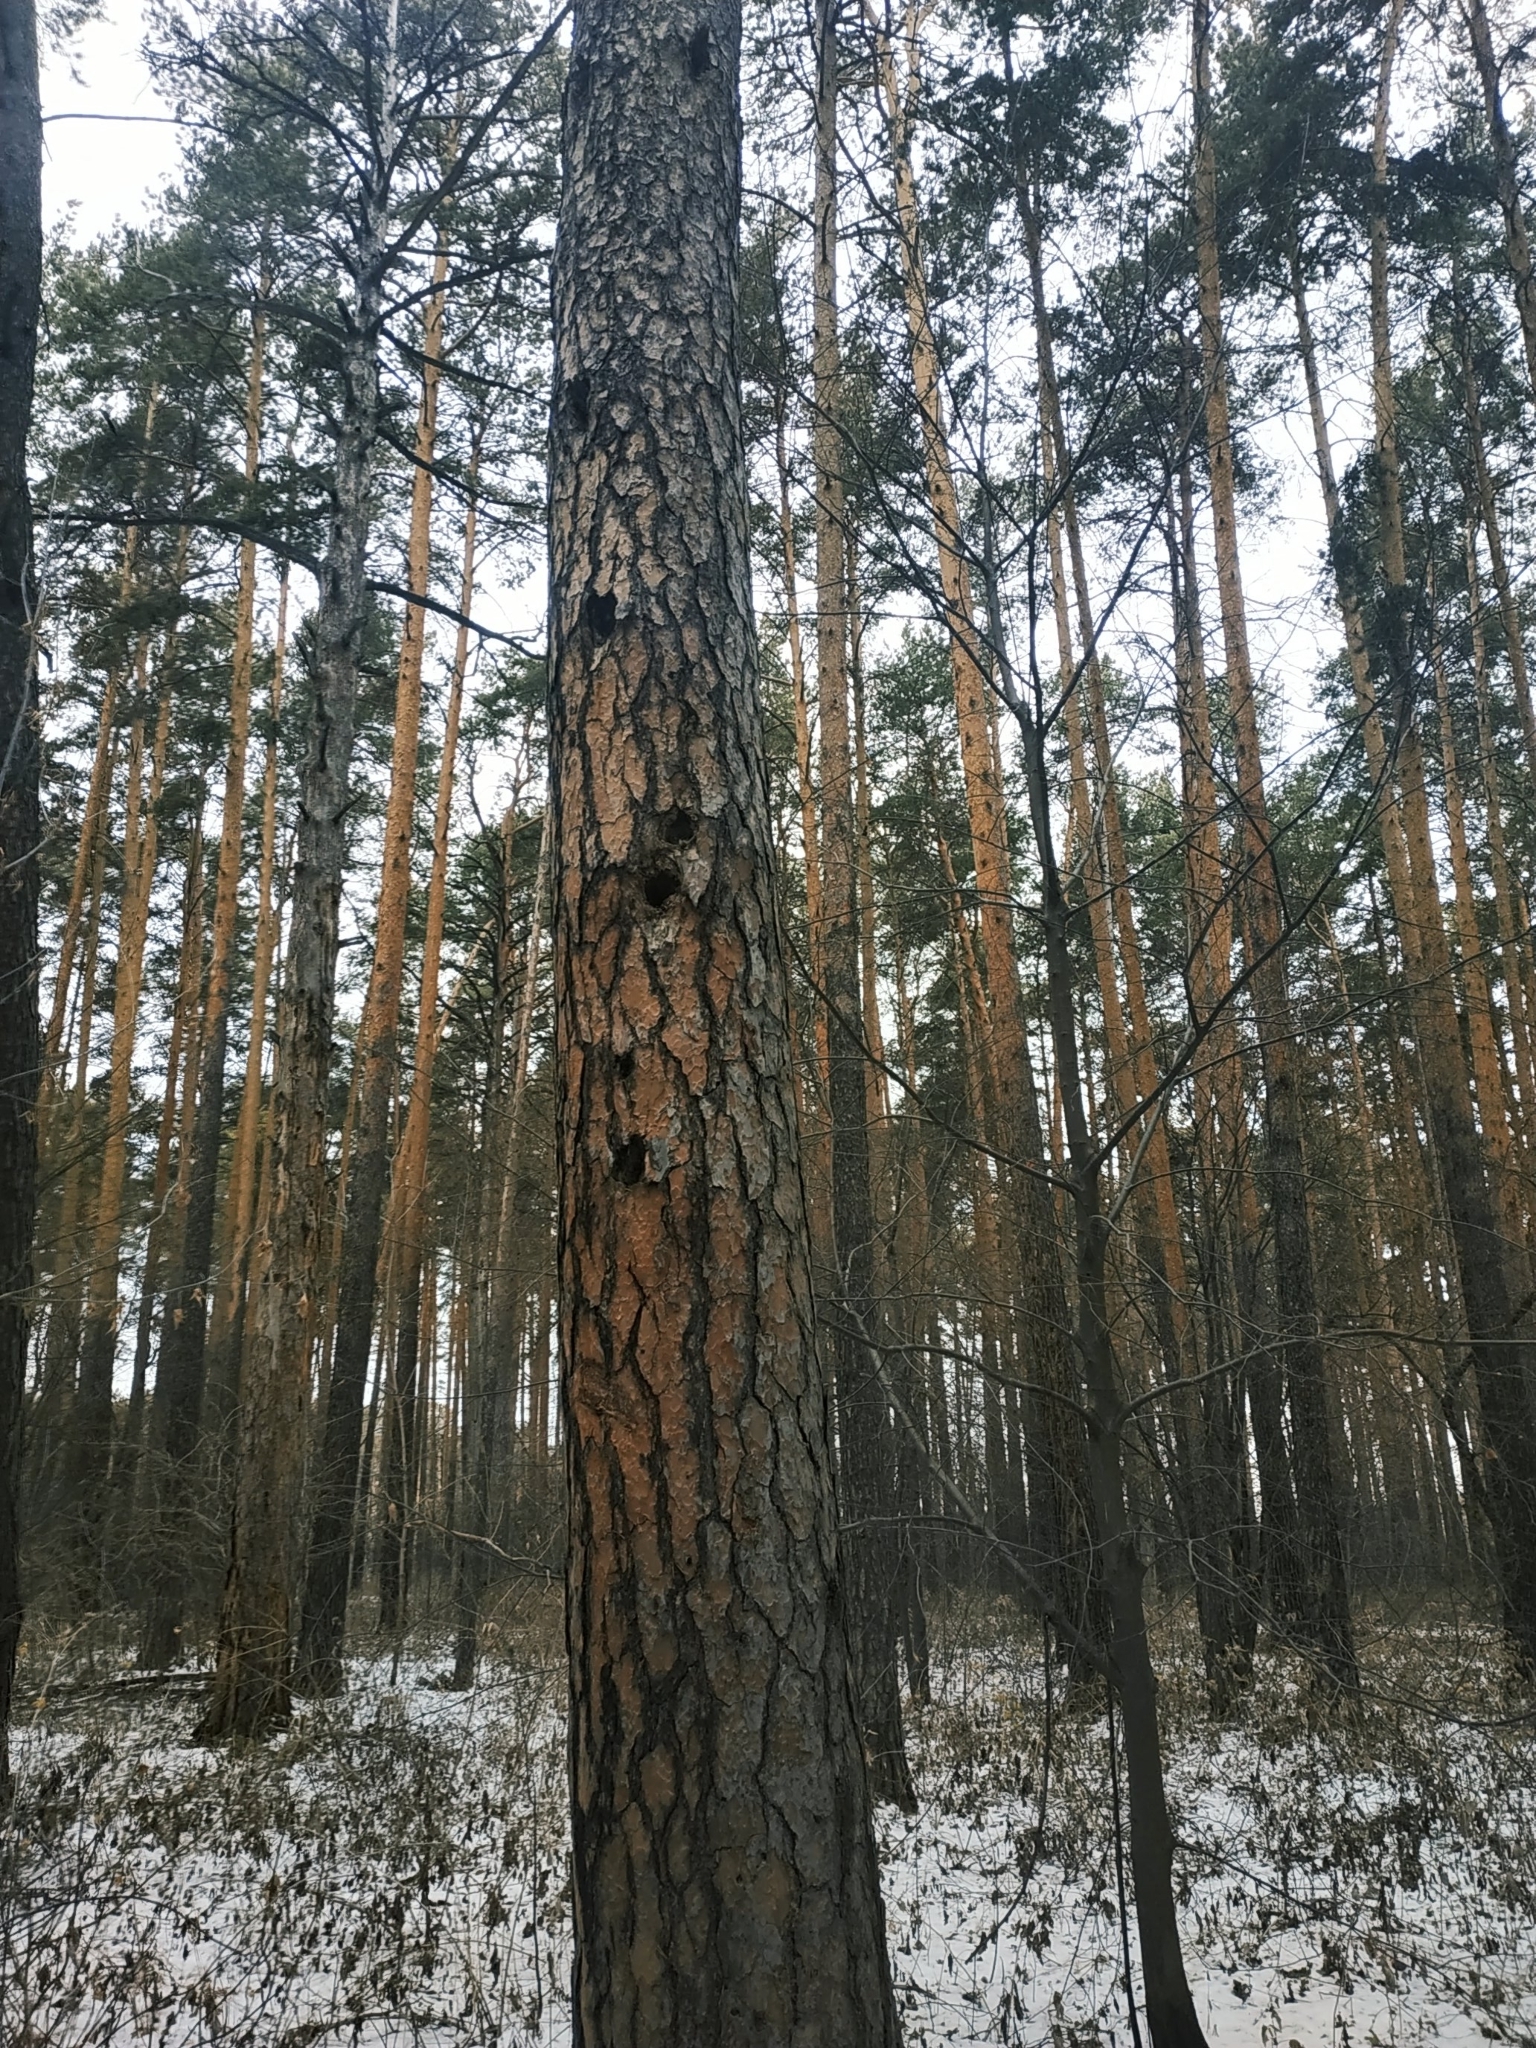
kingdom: Animalia
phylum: Chordata
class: Aves
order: Piciformes
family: Picidae
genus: Dendrocopos
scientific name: Dendrocopos major
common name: Great spotted woodpecker
